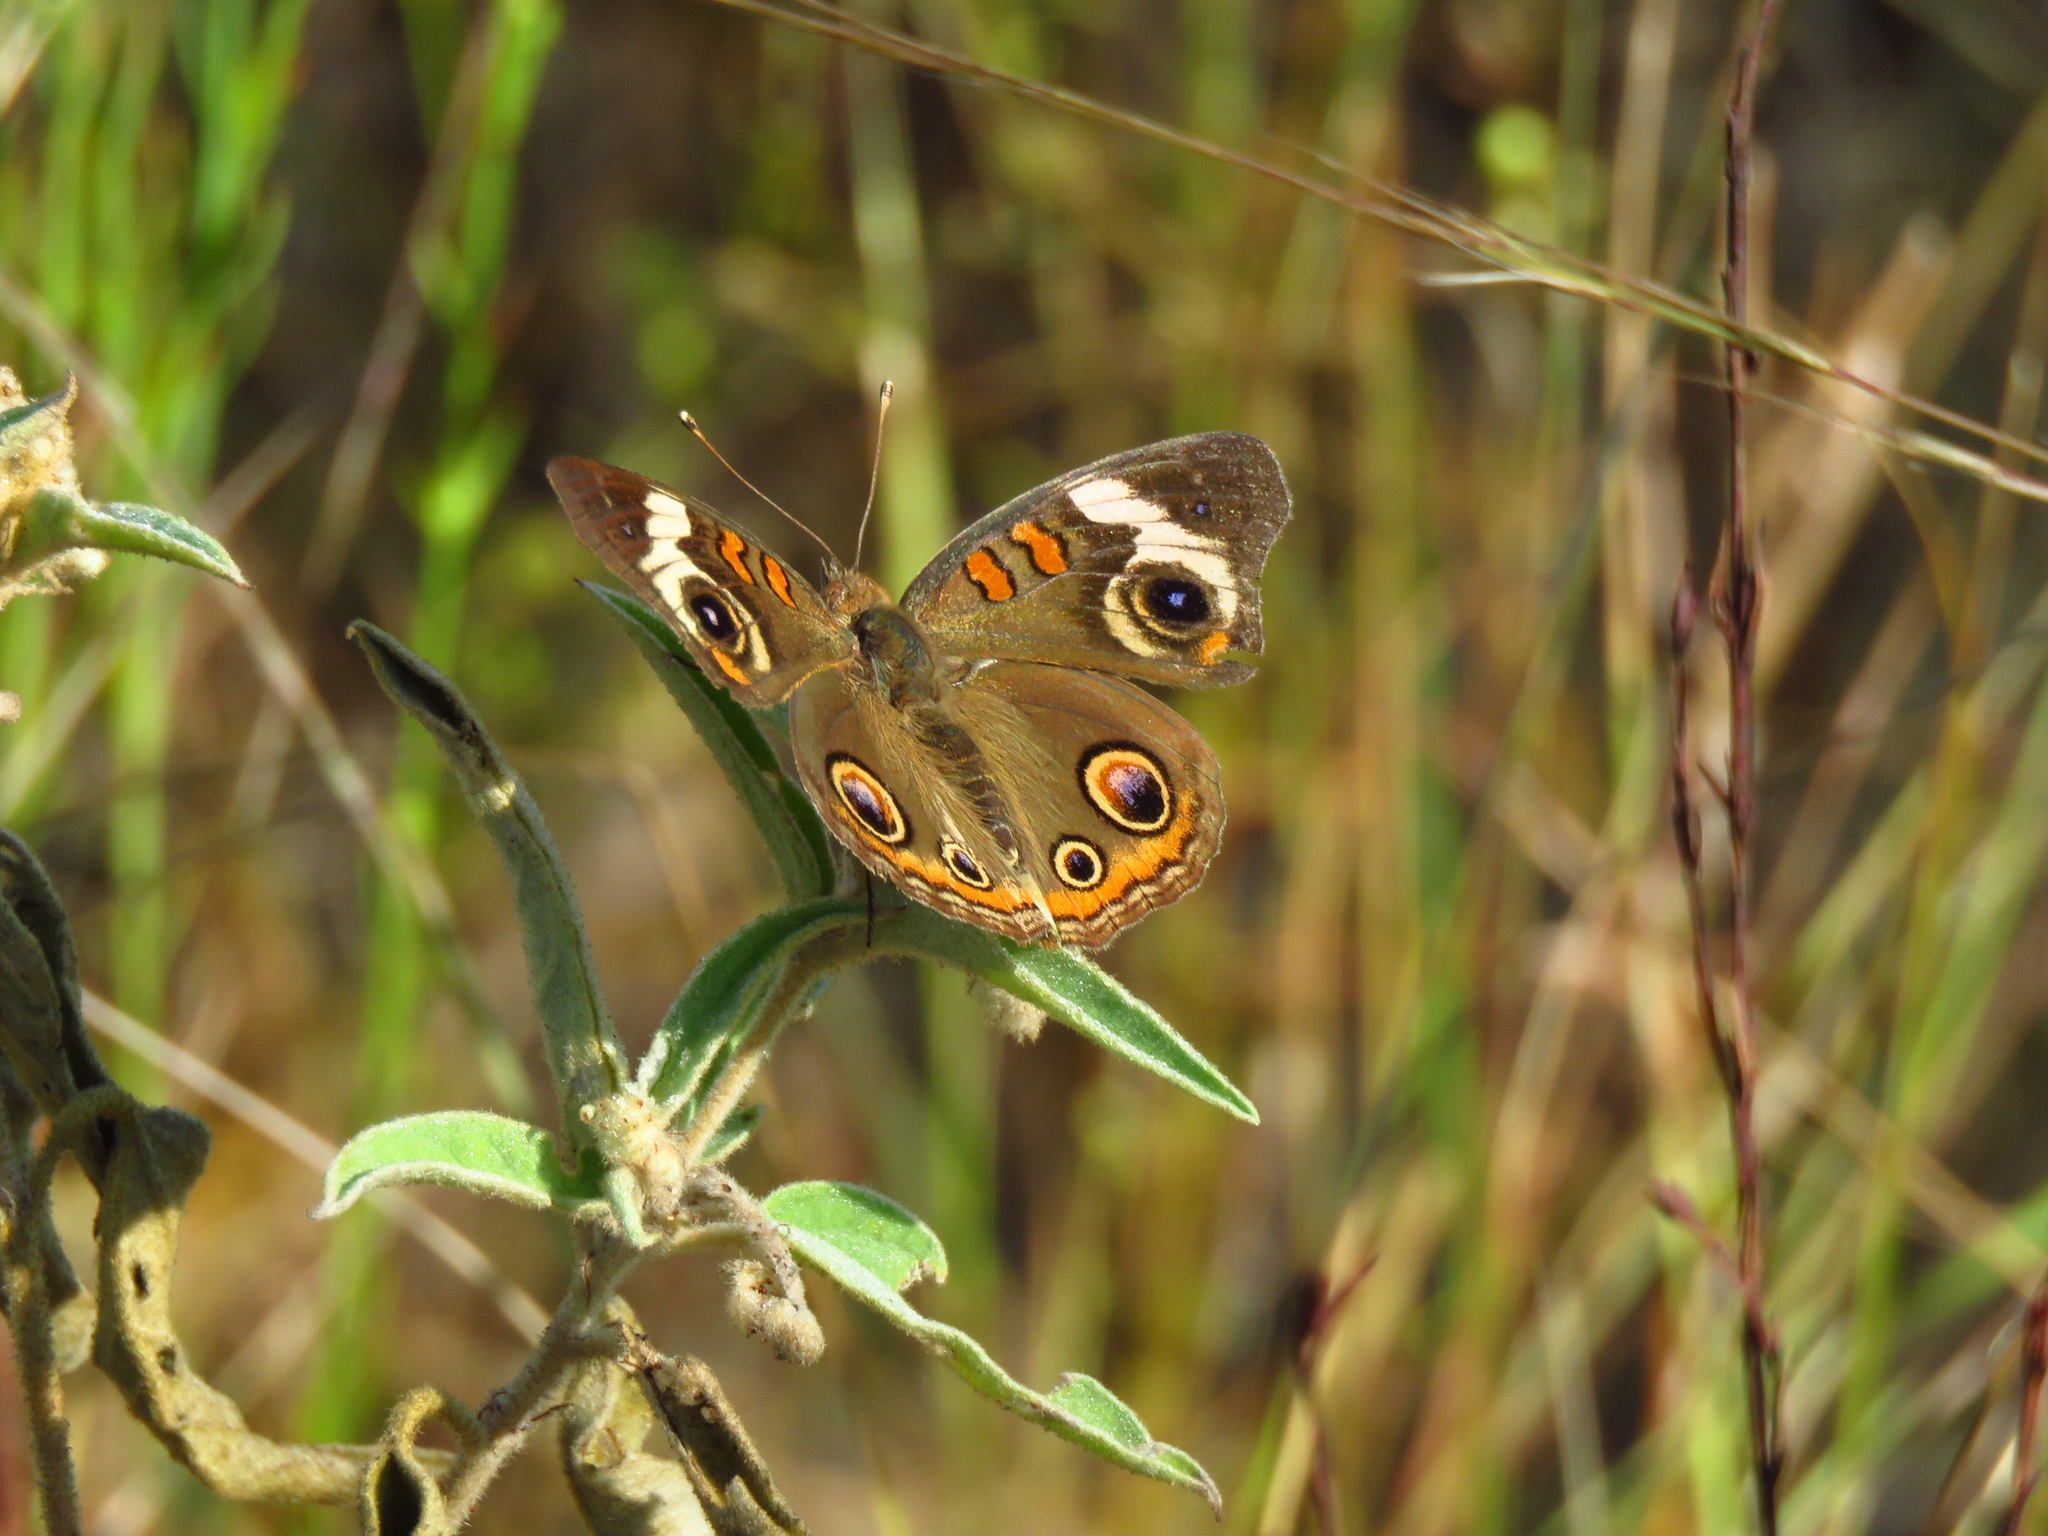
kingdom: Animalia
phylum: Arthropoda
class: Insecta
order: Lepidoptera
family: Nymphalidae
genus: Junonia
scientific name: Junonia coenia
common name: Common buckeye
